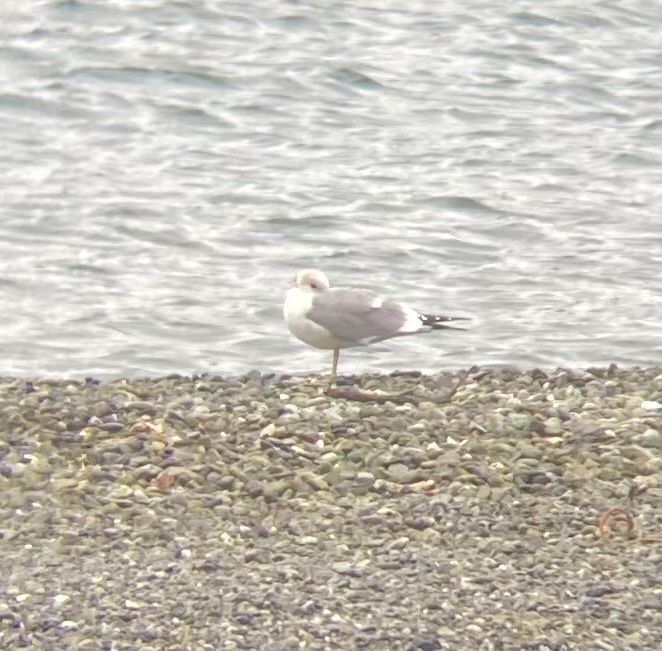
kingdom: Animalia
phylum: Chordata
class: Aves
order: Charadriiformes
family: Laridae
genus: Larus
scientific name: Larus brachyrhynchus
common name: Short-billed gull
